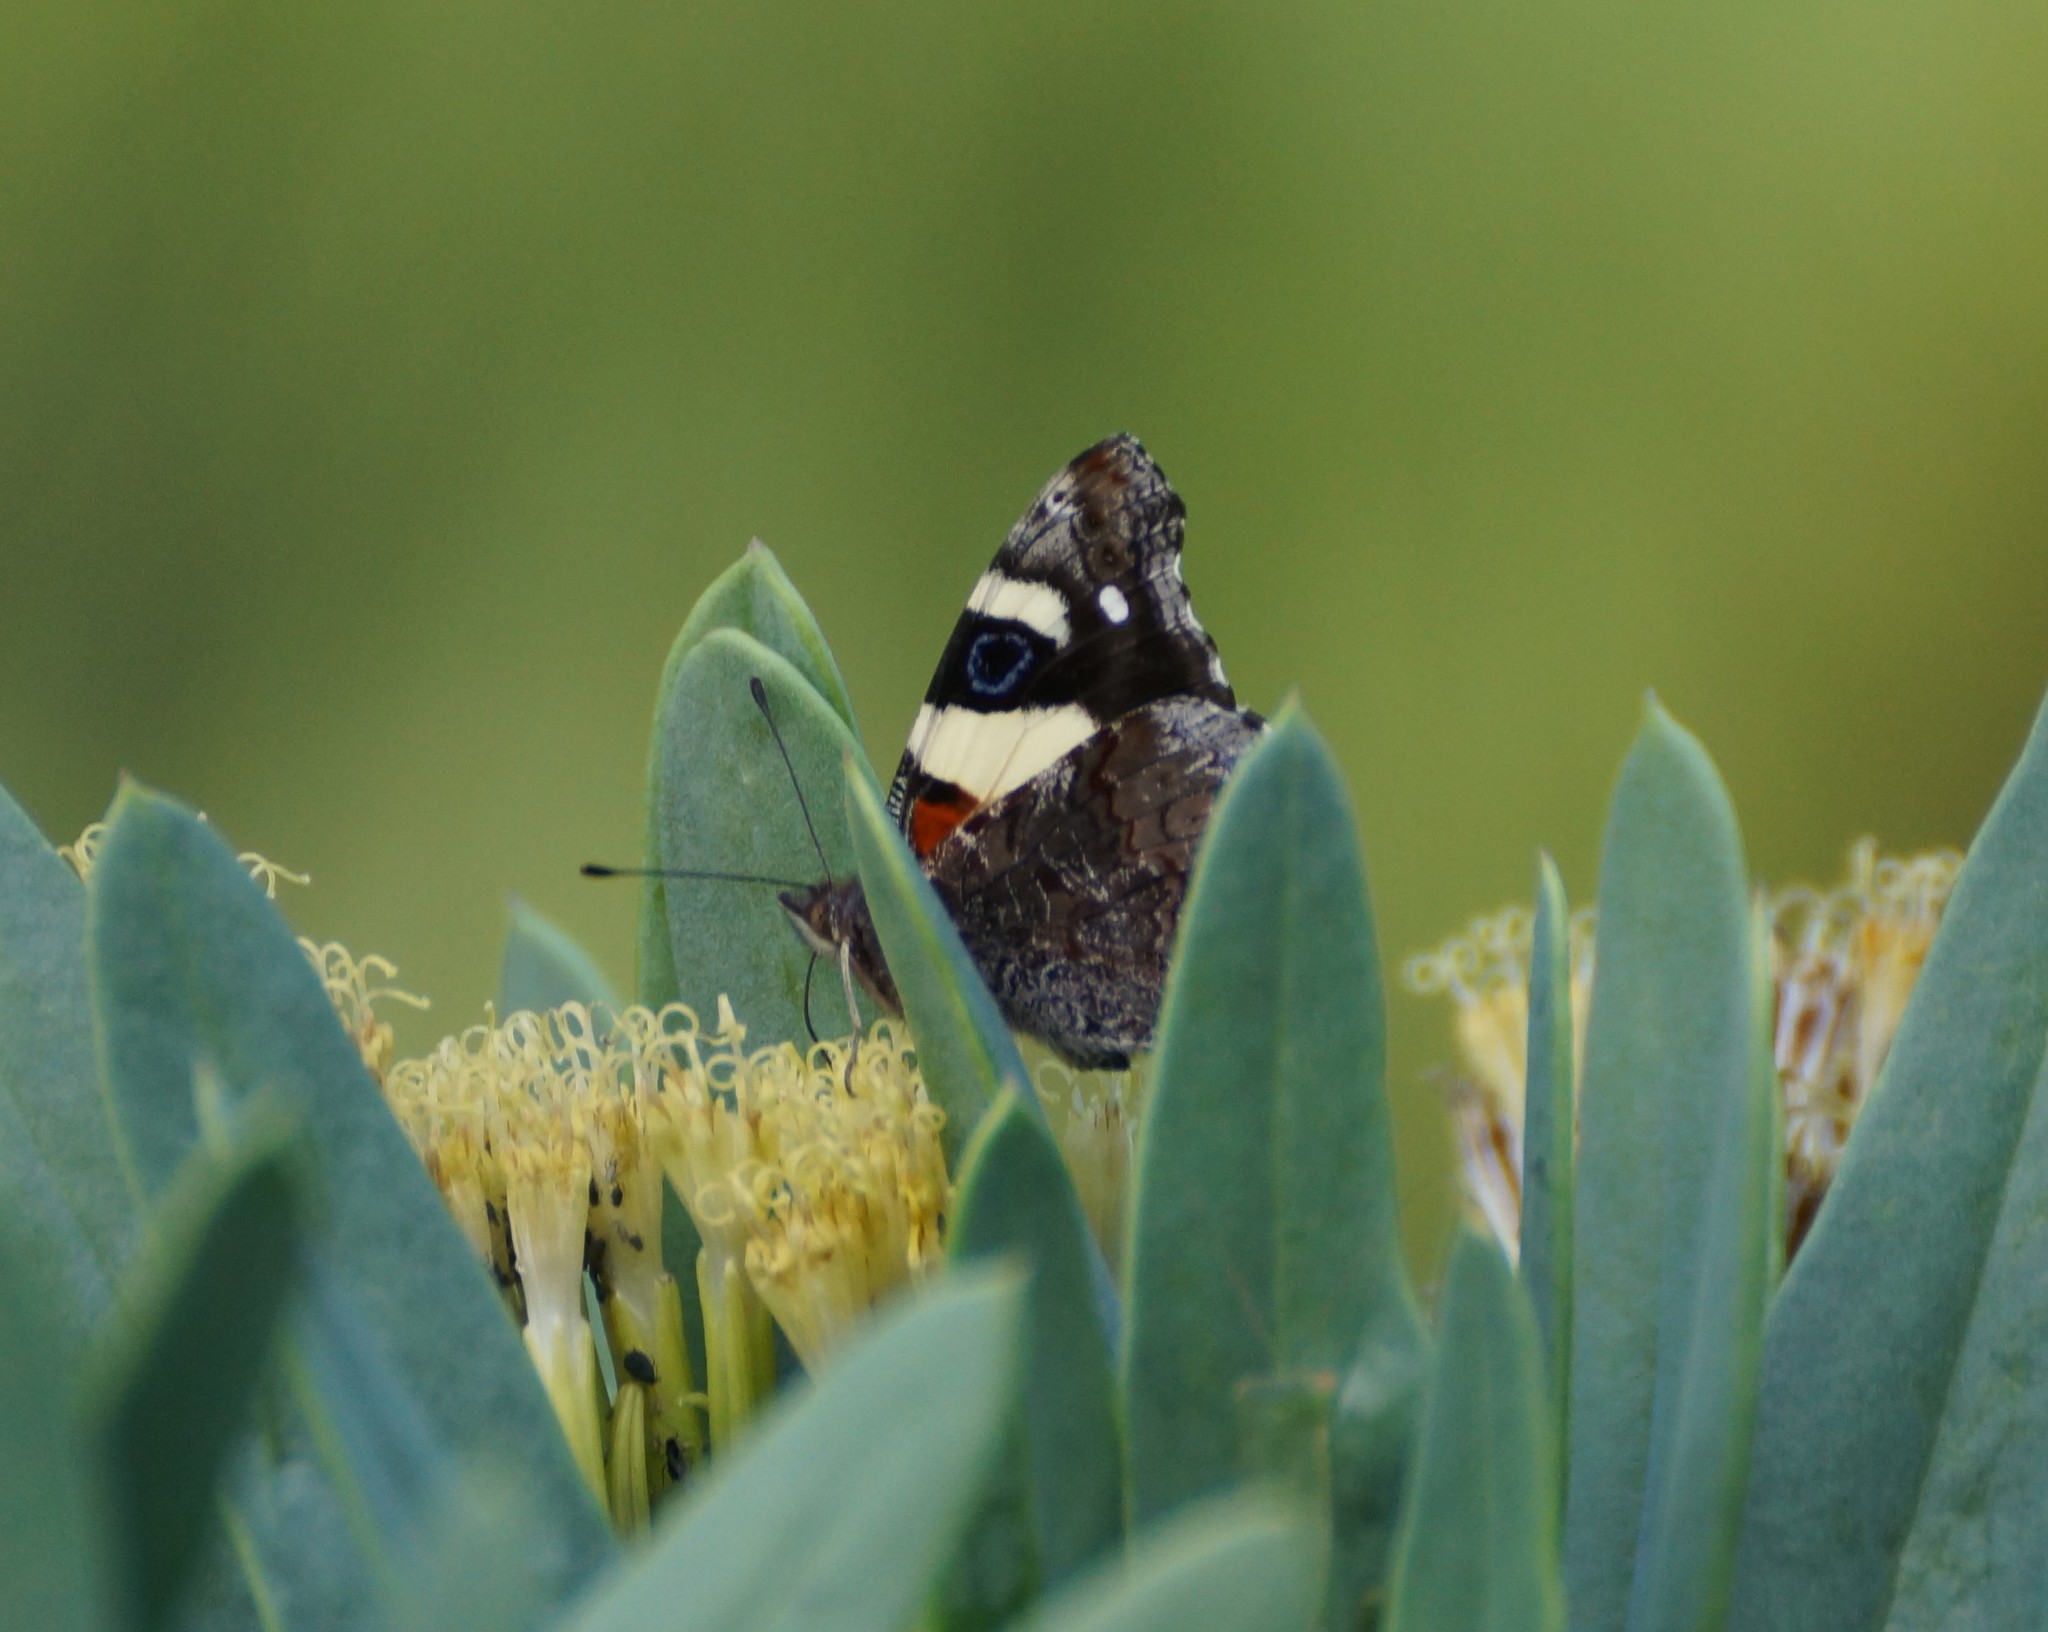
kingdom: Animalia
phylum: Arthropoda
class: Insecta
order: Lepidoptera
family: Nymphalidae
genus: Vanessa
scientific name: Vanessa itea
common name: Yellow admiral
